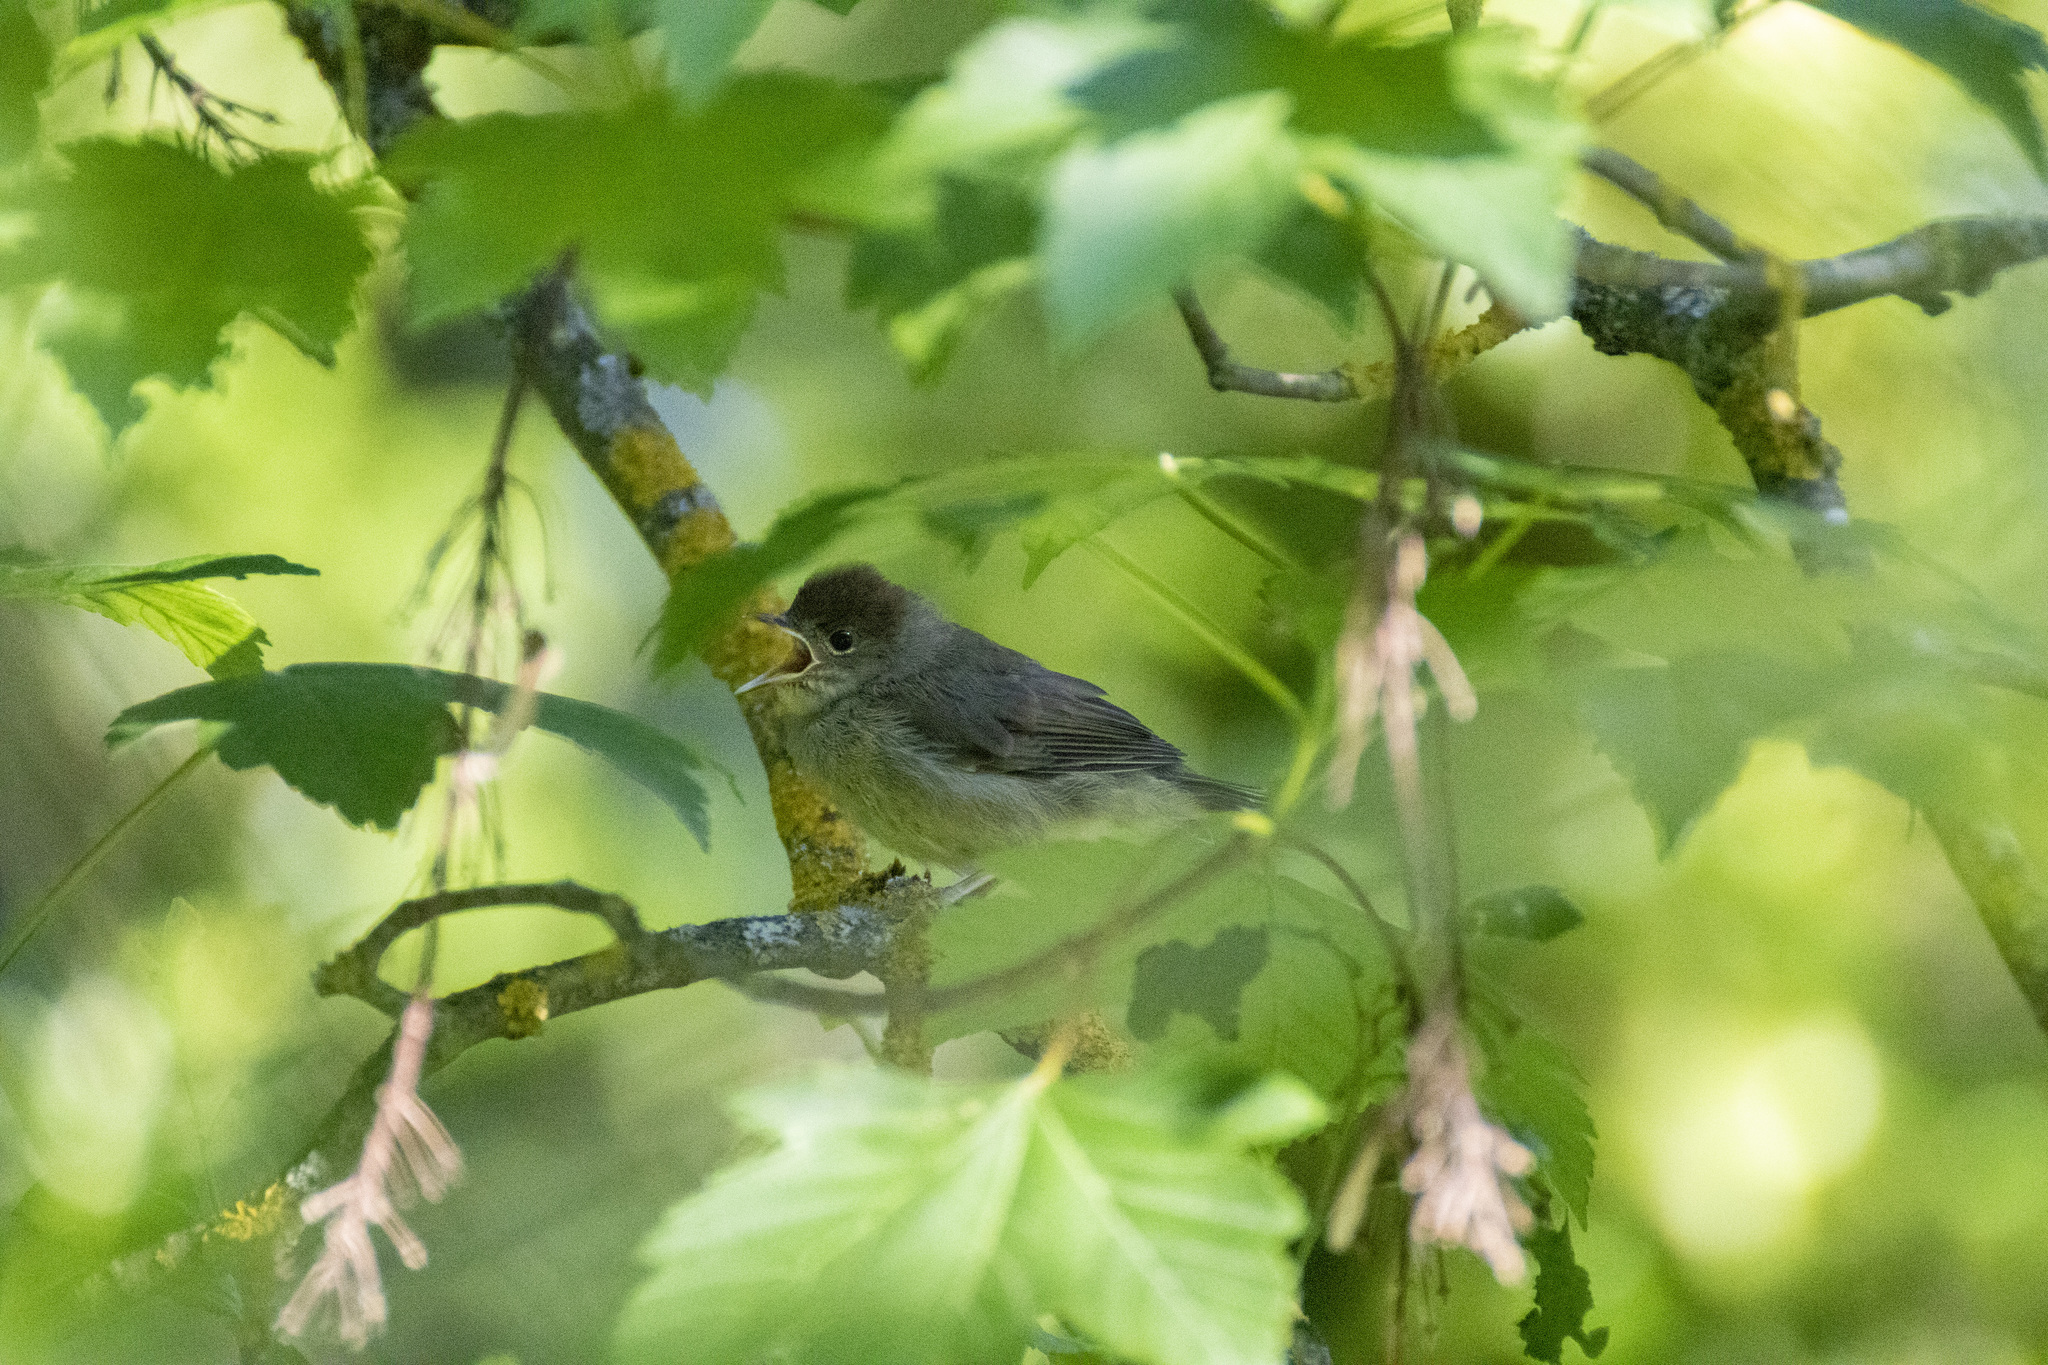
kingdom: Animalia
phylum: Chordata
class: Aves
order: Passeriformes
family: Sylviidae
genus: Sylvia
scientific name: Sylvia atricapilla
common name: Eurasian blackcap
